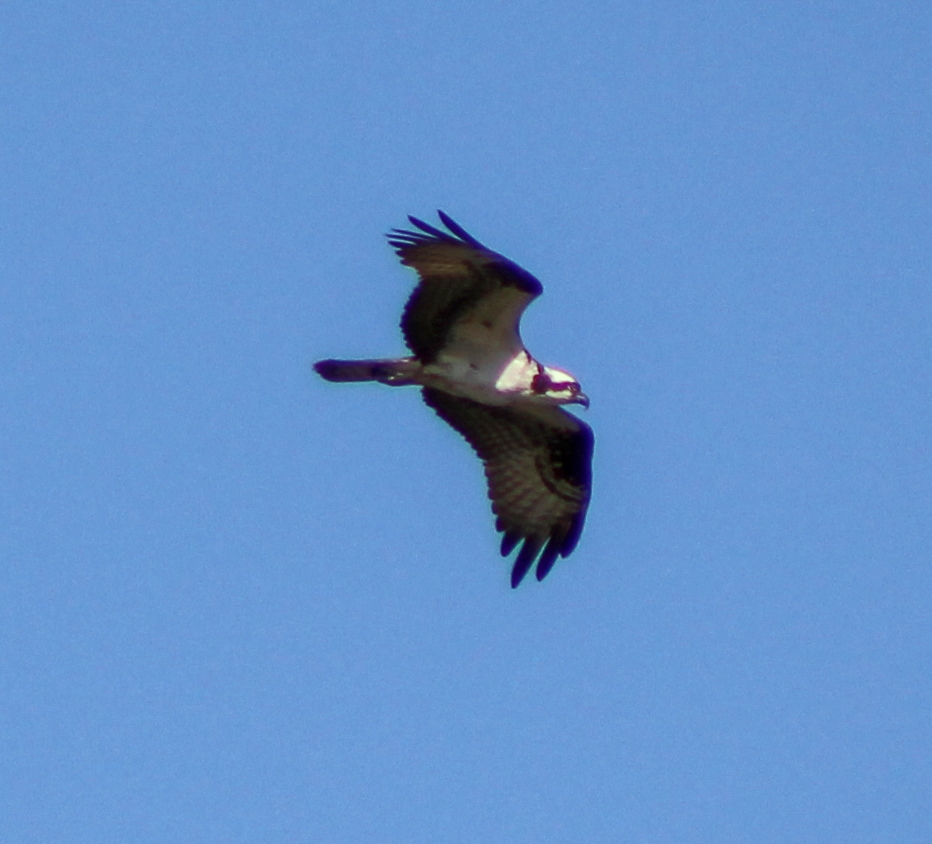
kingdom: Animalia
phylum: Chordata
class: Aves
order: Accipitriformes
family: Pandionidae
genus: Pandion
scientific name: Pandion haliaetus
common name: Osprey
